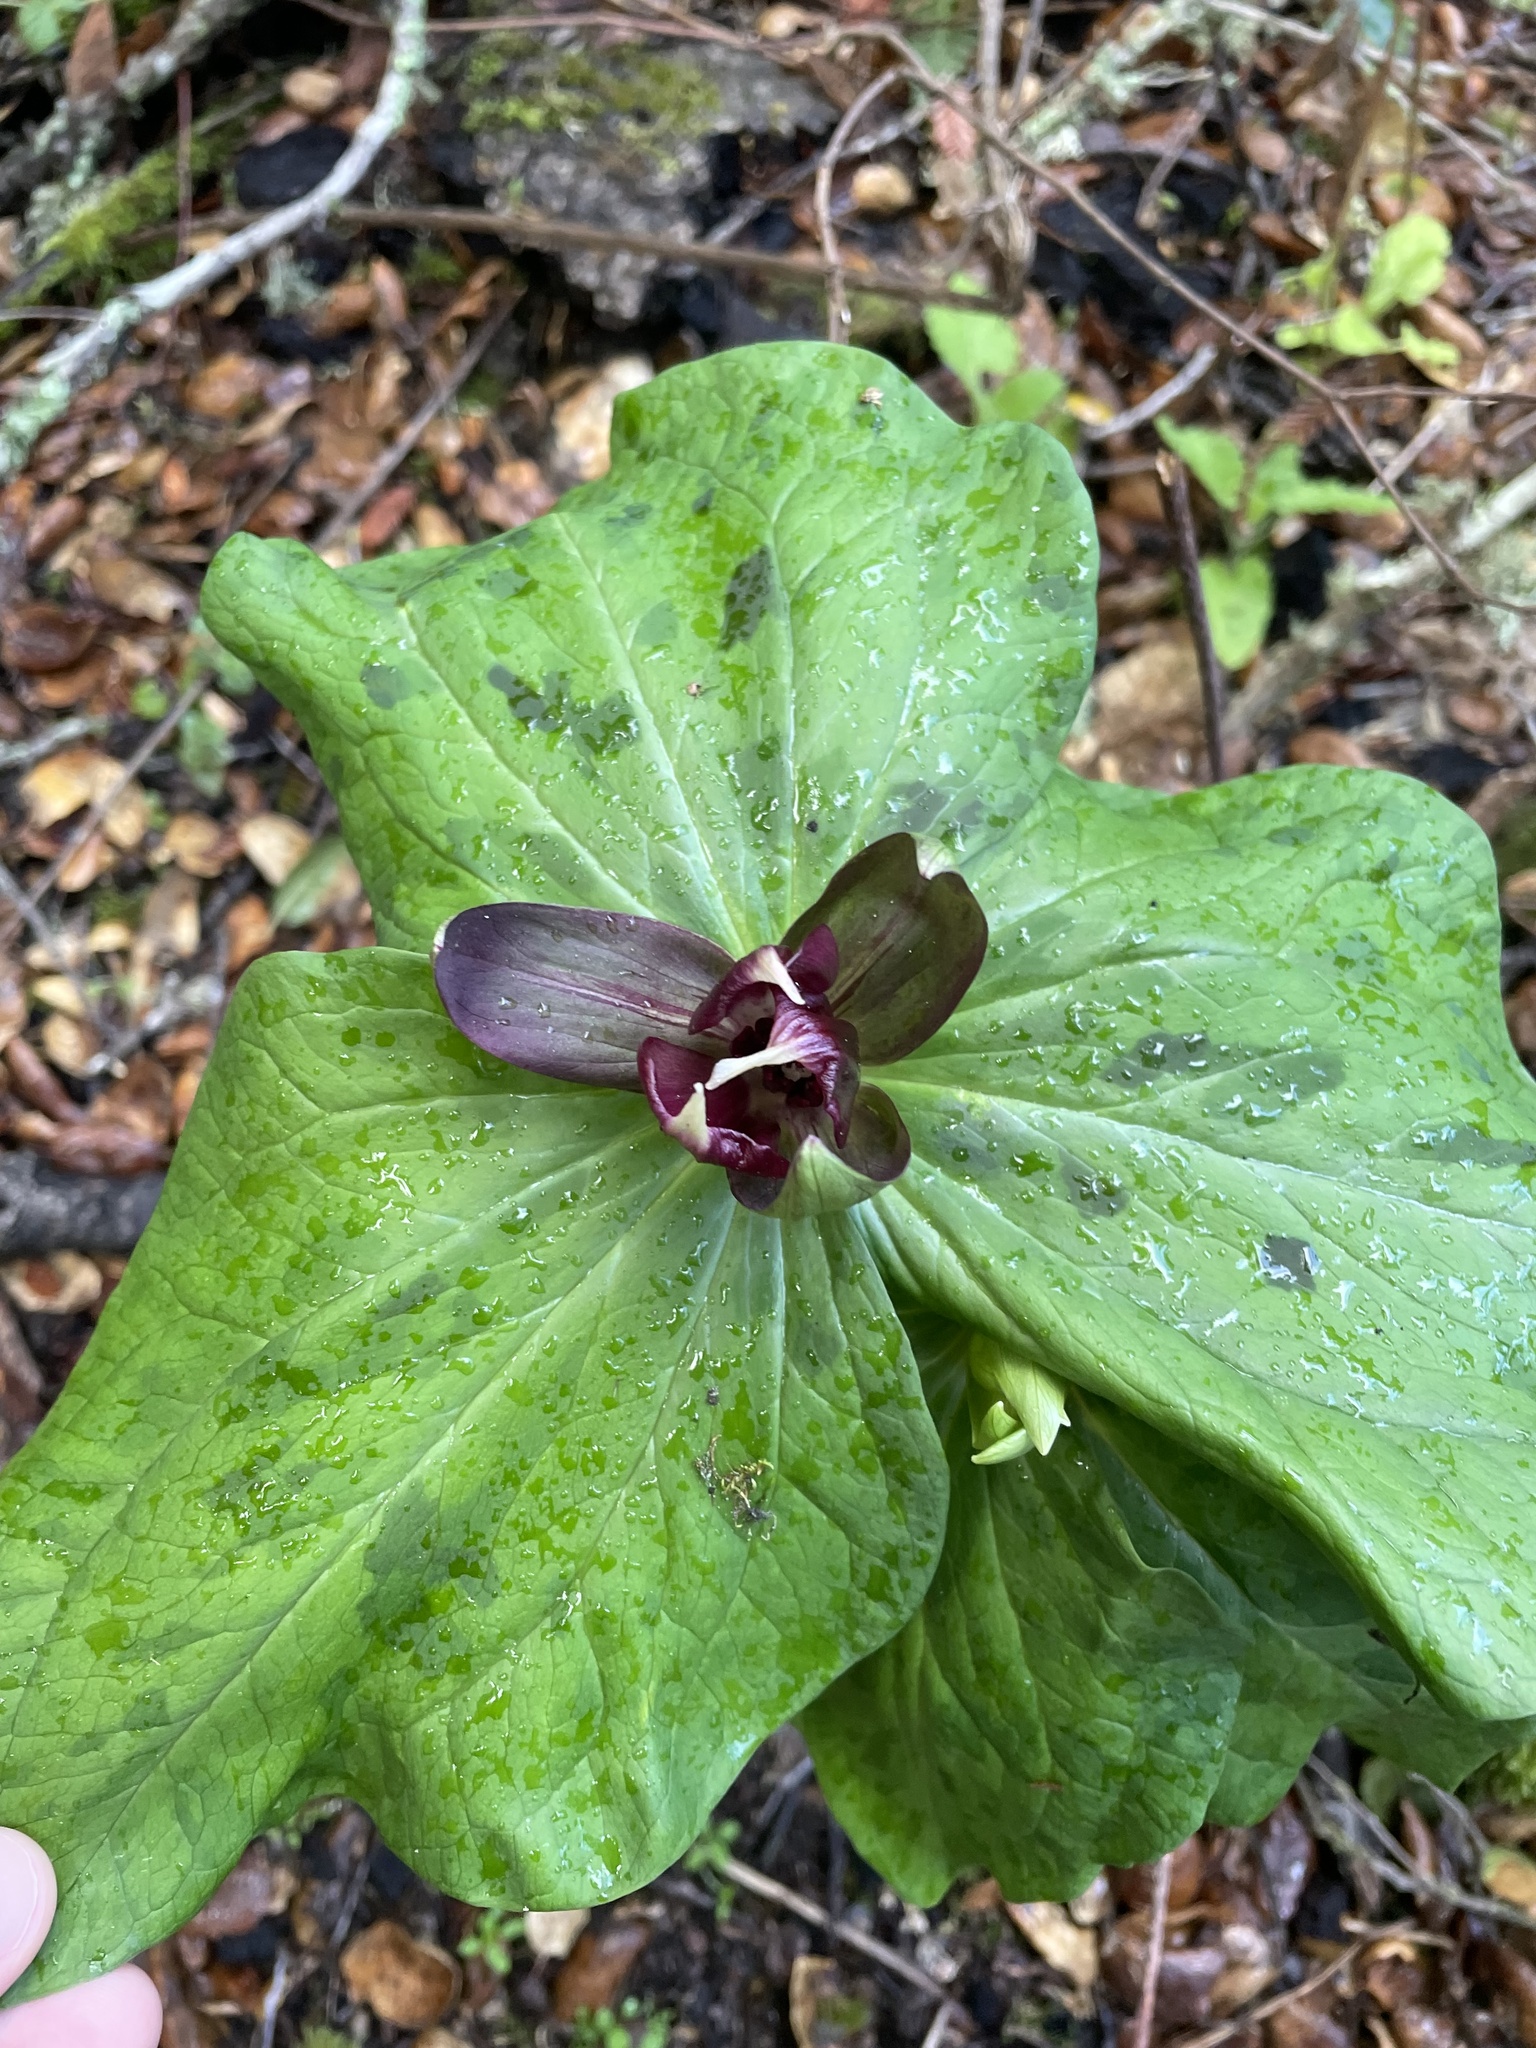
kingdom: Plantae
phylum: Tracheophyta
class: Liliopsida
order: Liliales
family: Melanthiaceae
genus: Trillium
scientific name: Trillium chloropetalum
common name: Giant trillium
